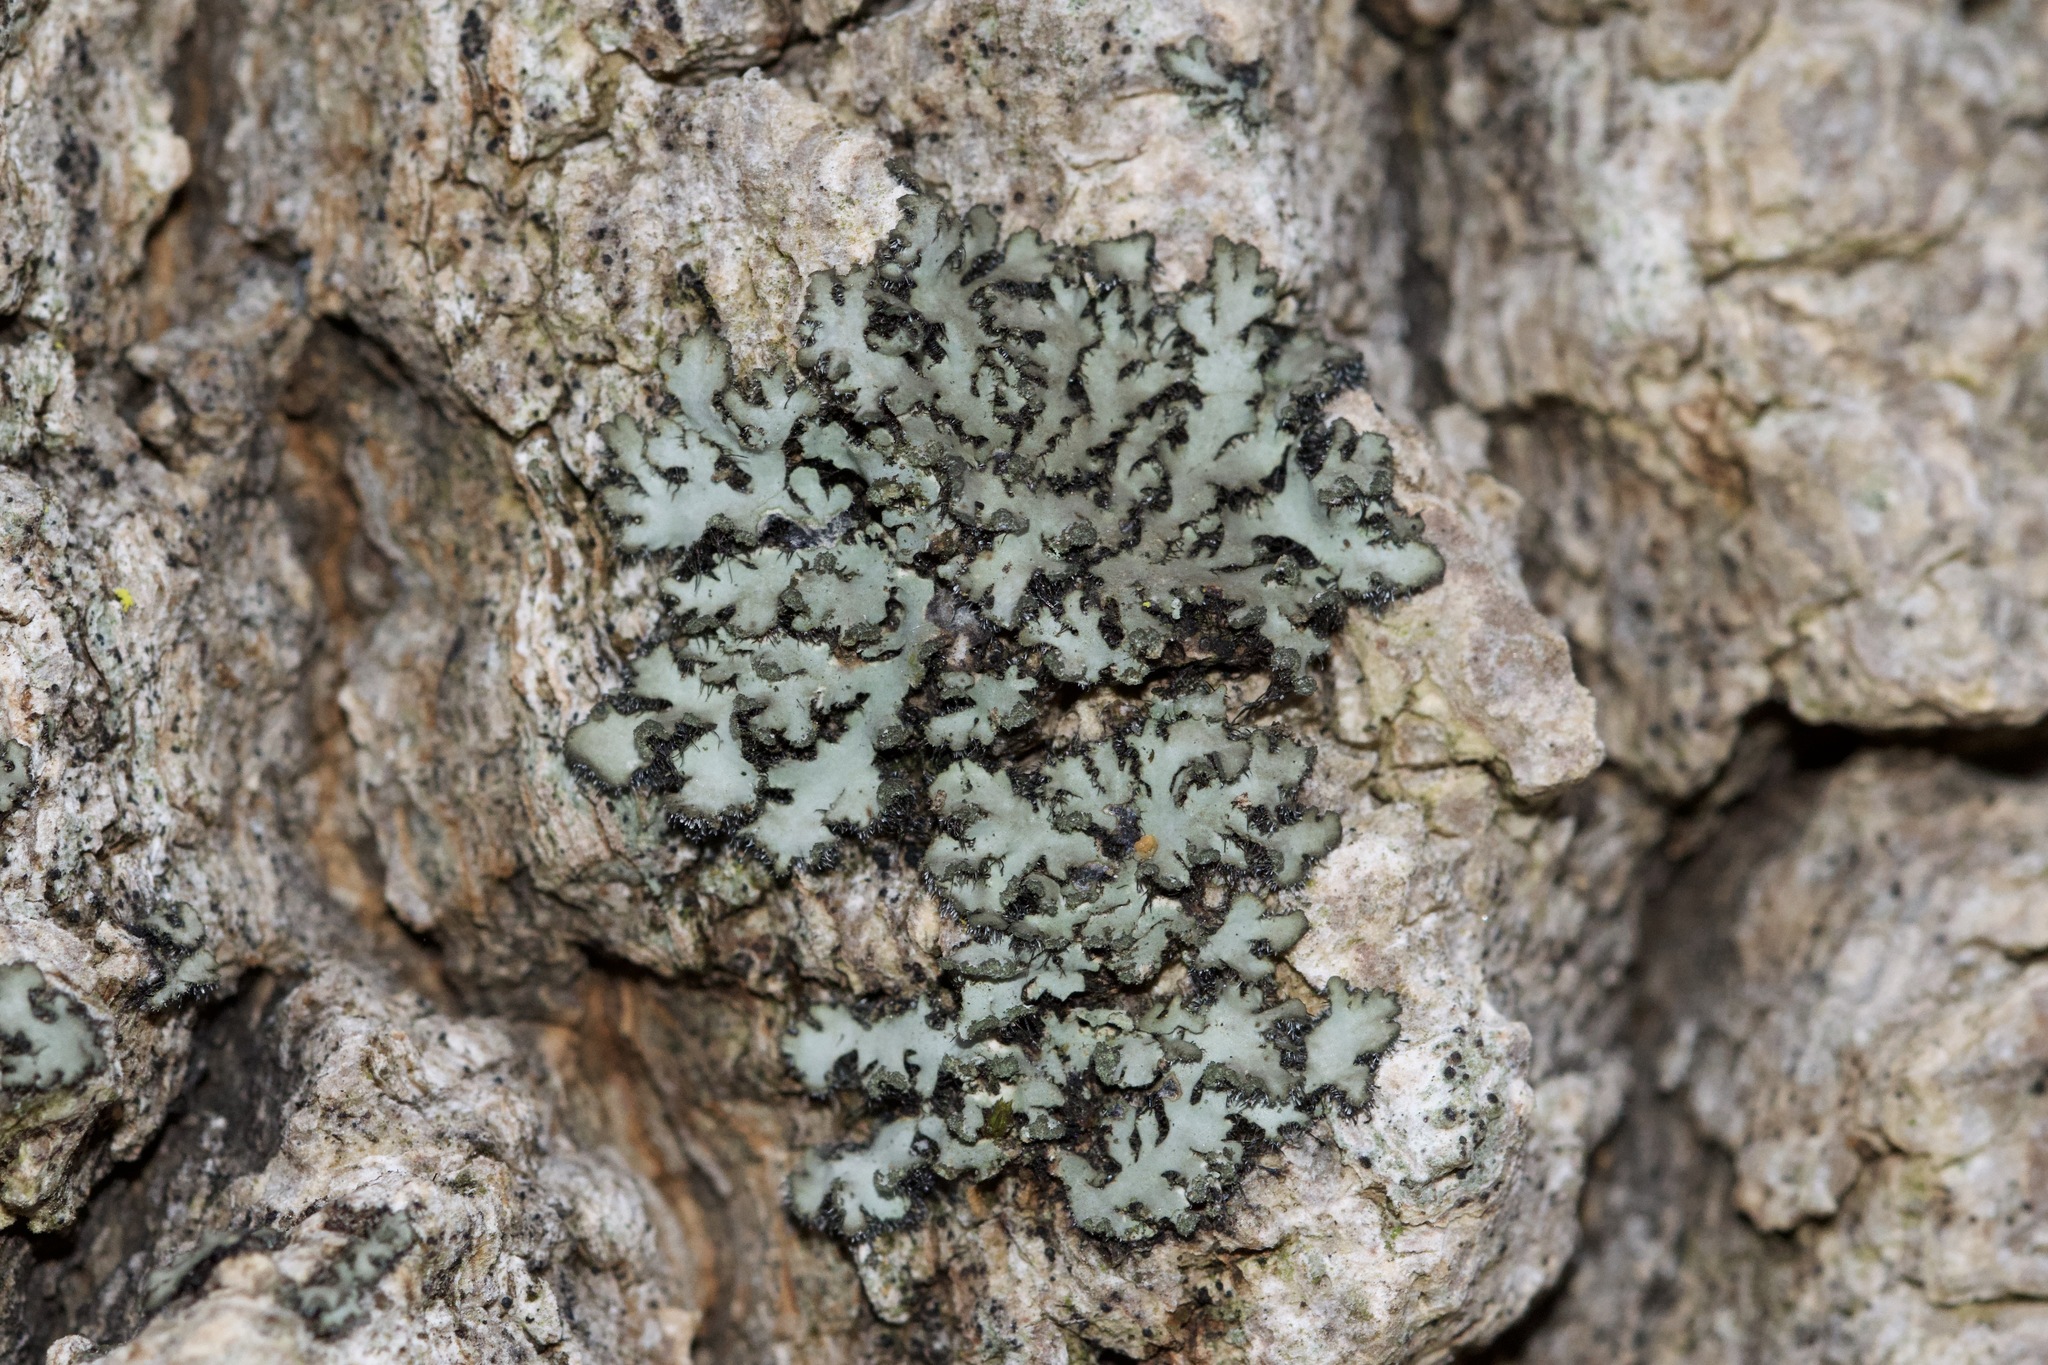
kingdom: Fungi
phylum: Ascomycota
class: Lecanoromycetes
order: Caliciales
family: Physciaceae
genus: Phaeophyscia
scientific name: Phaeophyscia rubropulchra
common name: Orange-cored shadow lichen
